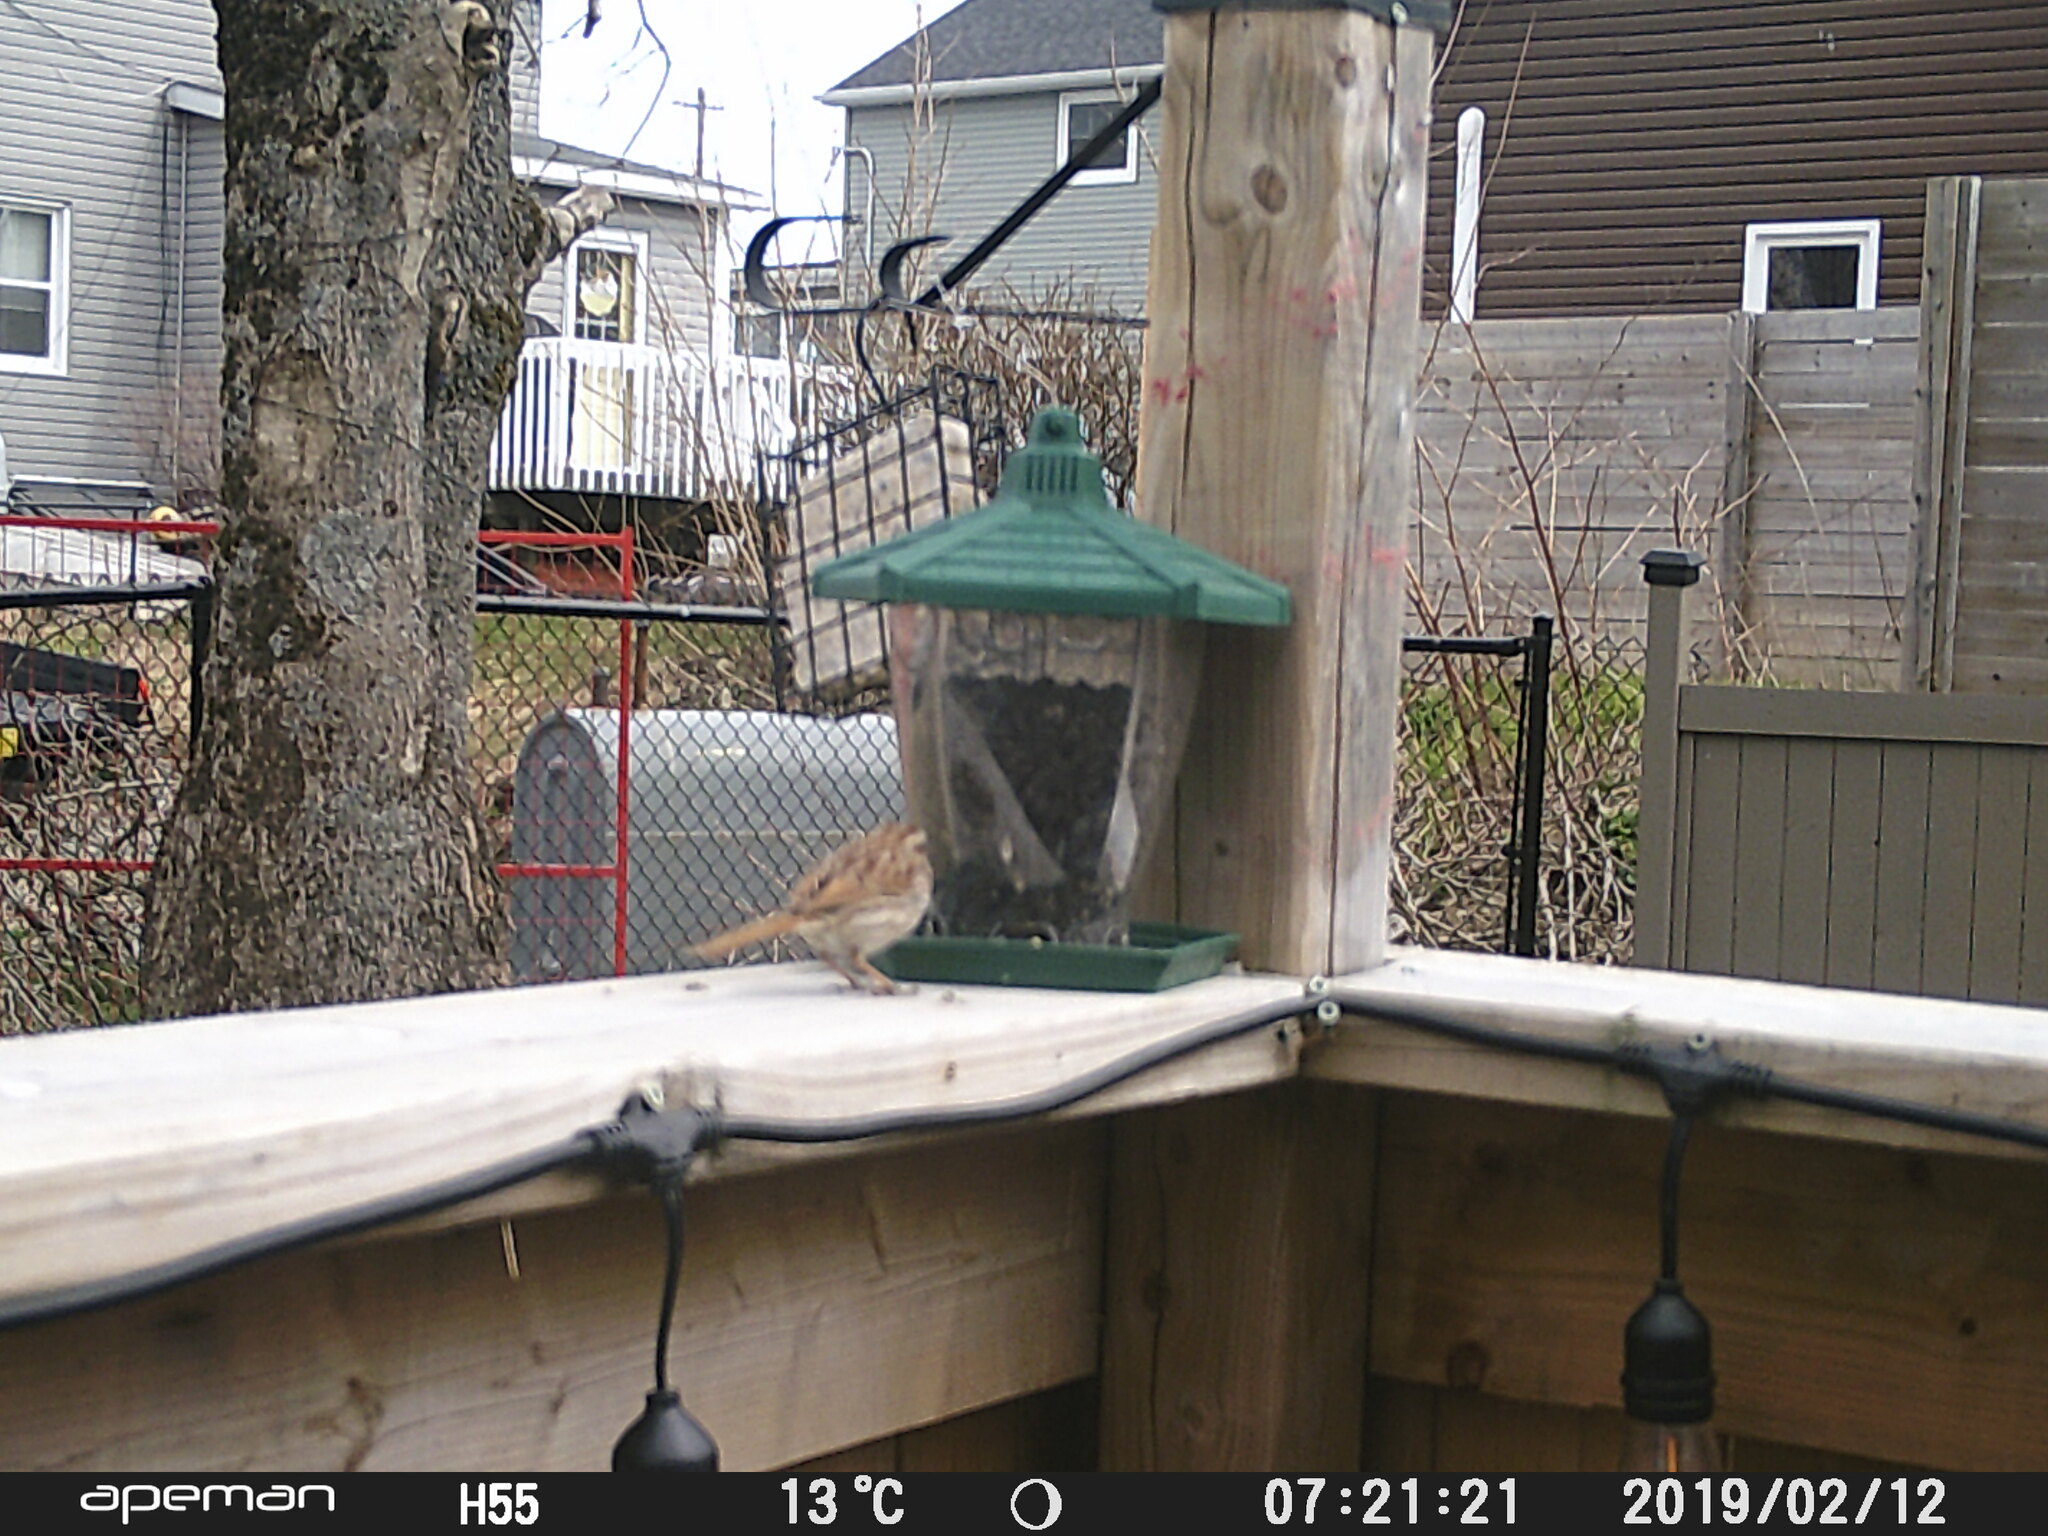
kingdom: Animalia
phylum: Chordata
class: Aves
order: Passeriformes
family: Passerellidae
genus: Melospiza
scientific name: Melospiza melodia
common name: Song sparrow
